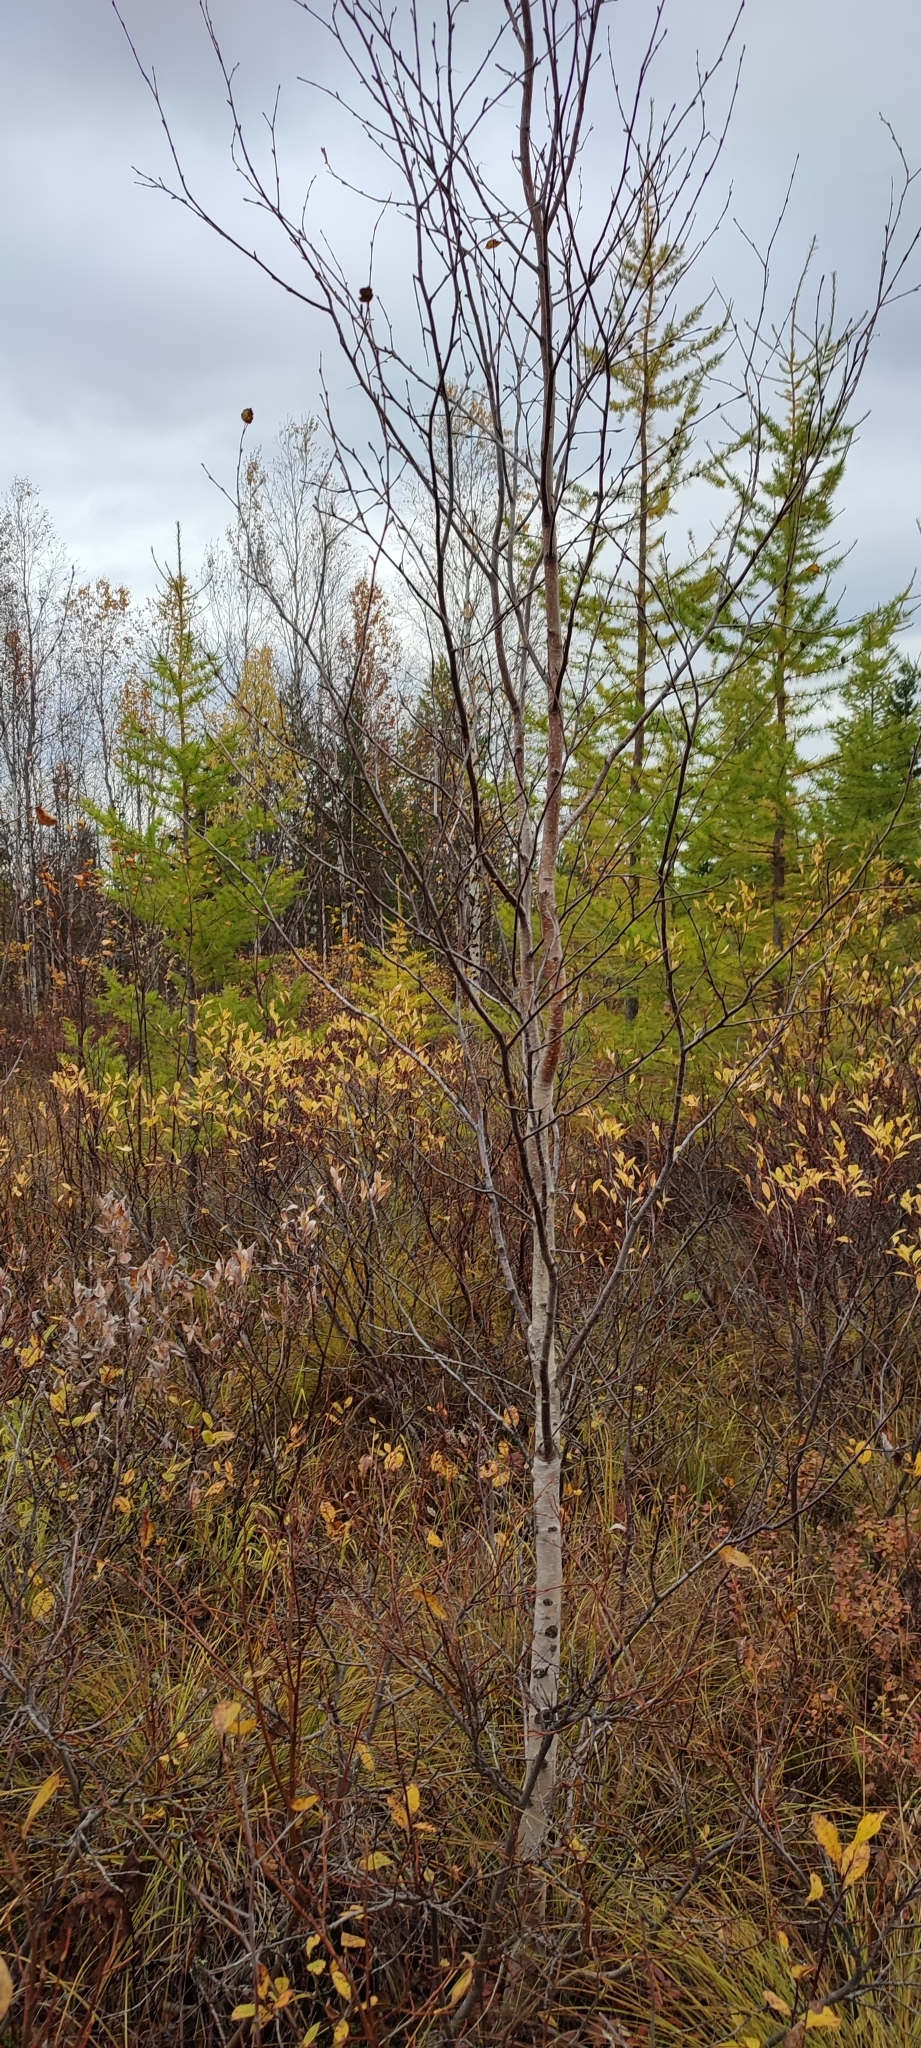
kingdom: Plantae
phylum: Tracheophyta
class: Magnoliopsida
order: Fagales
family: Betulaceae
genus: Betula
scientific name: Betula pubescens
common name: Downy birch
